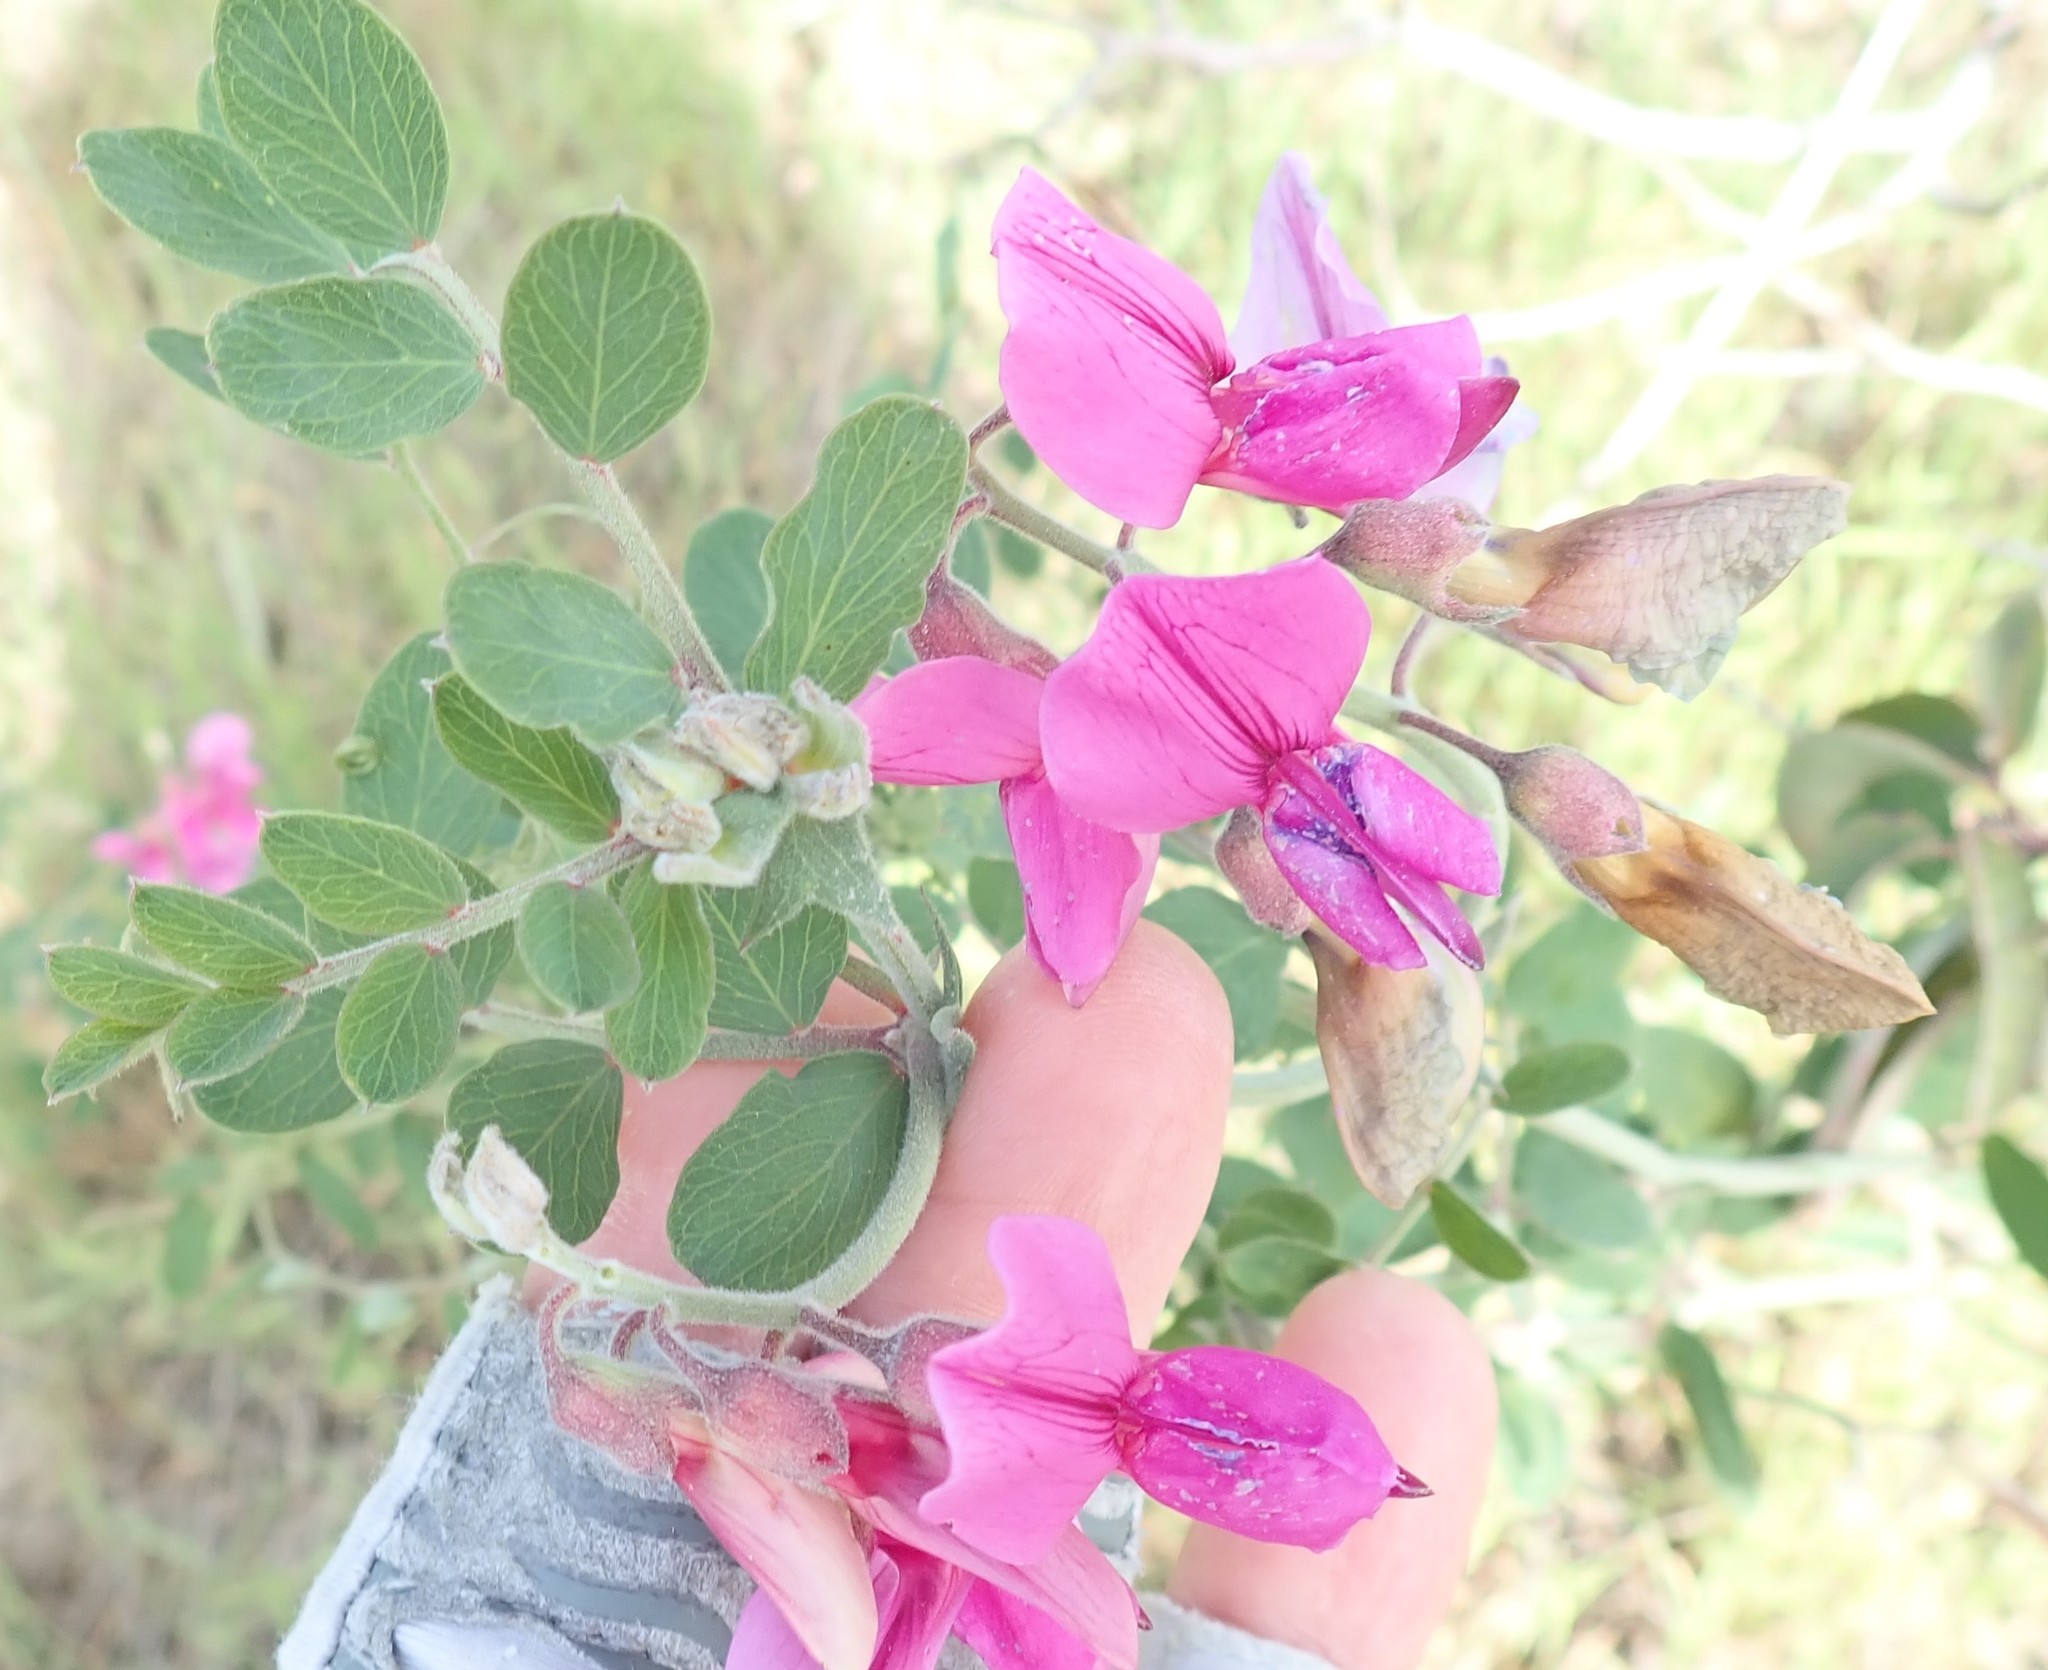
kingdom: Plantae
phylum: Tracheophyta
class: Magnoliopsida
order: Fabales
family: Fabaceae
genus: Lathyrus
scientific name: Lathyrus vestitus
